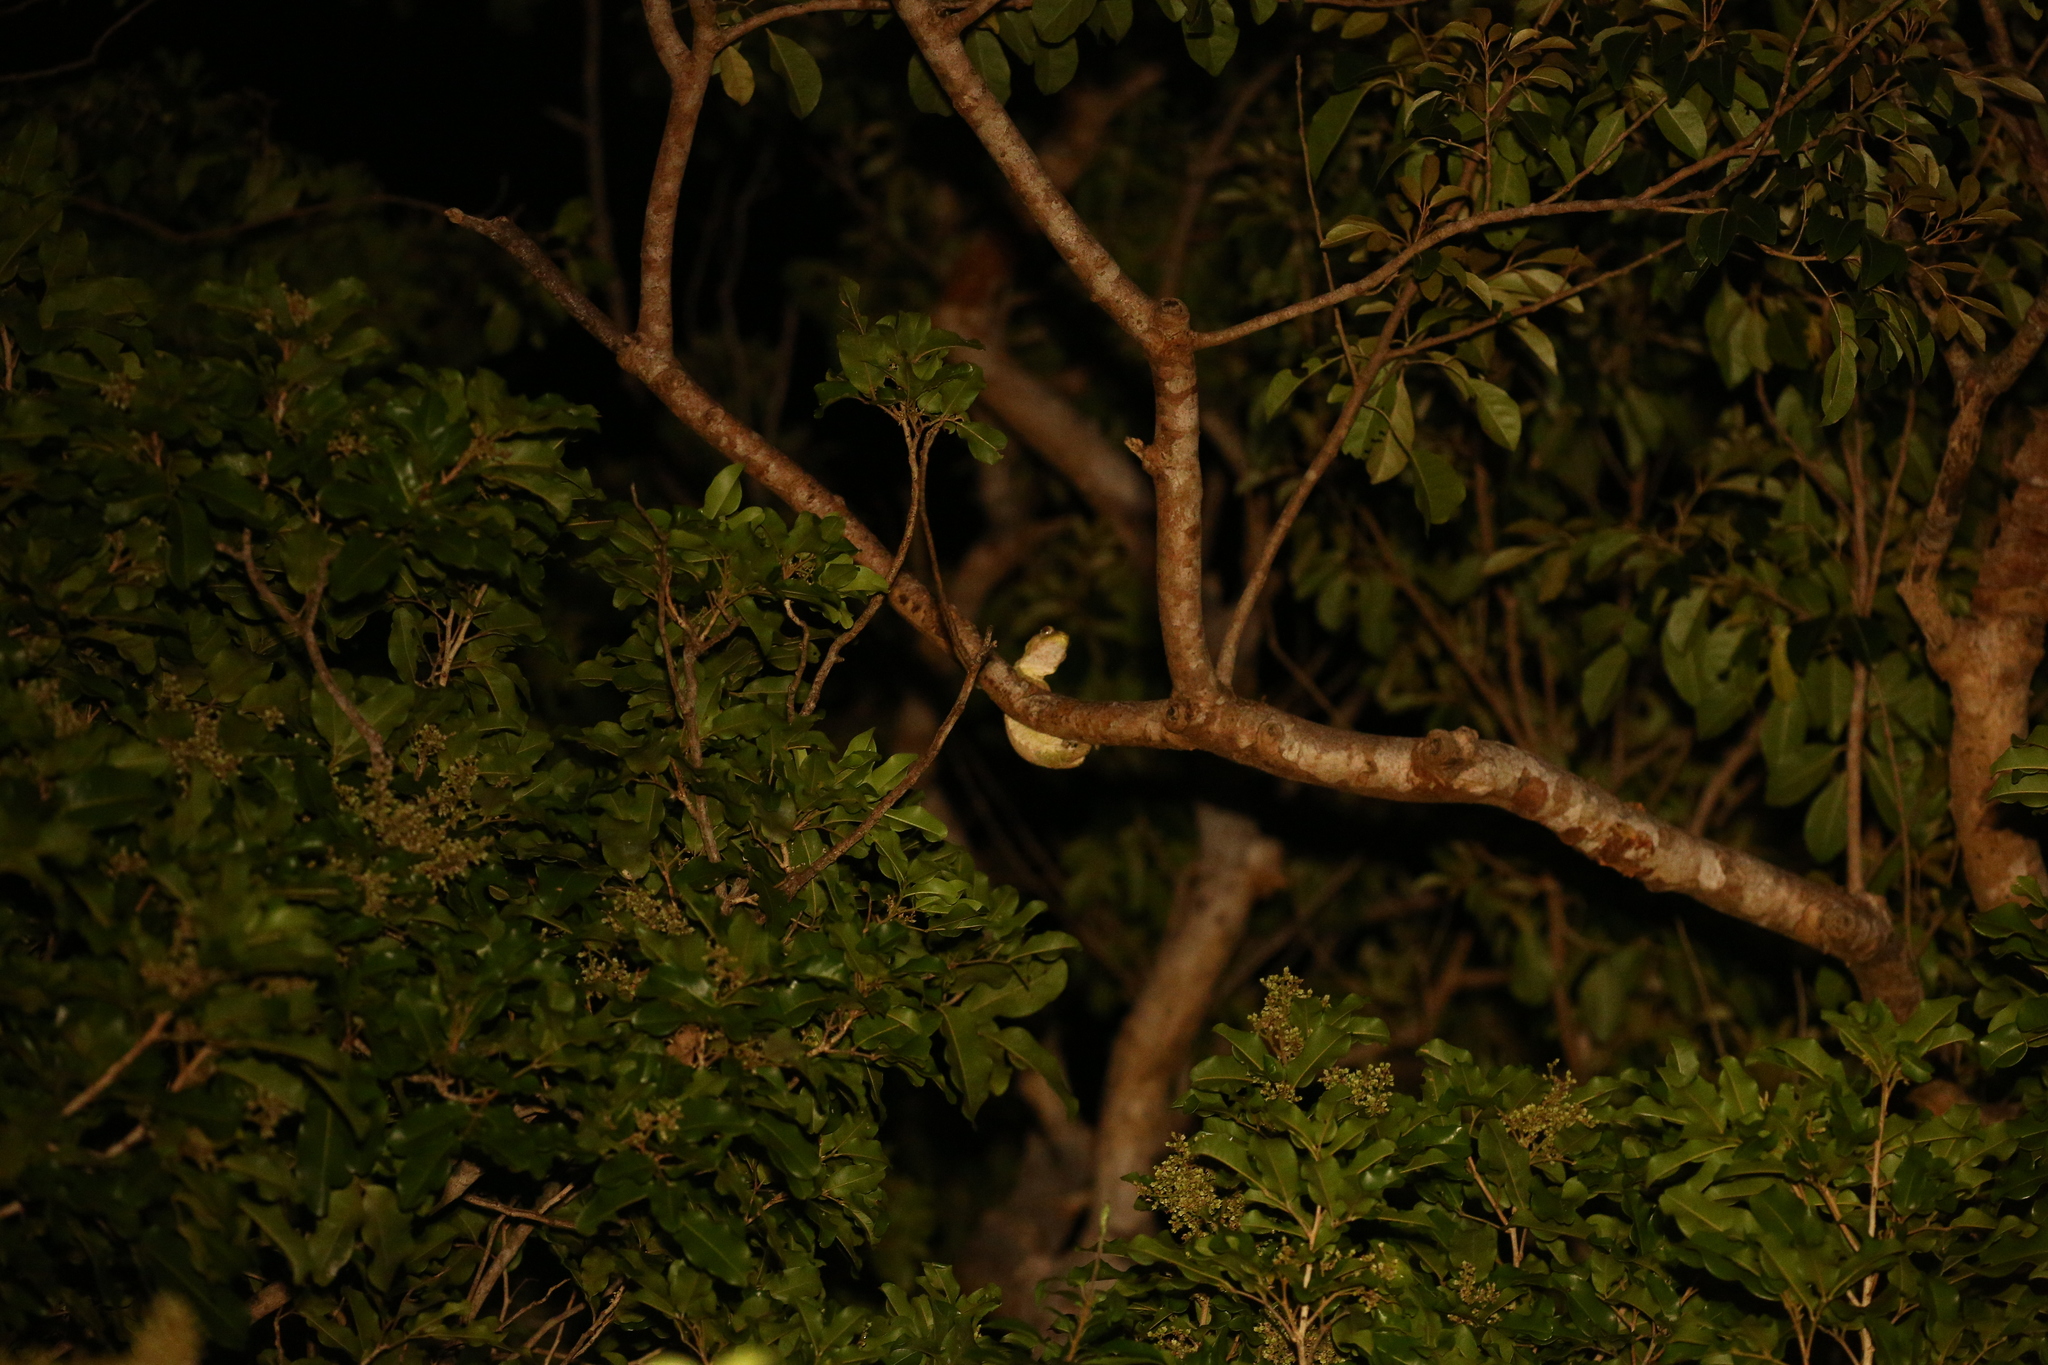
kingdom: Animalia
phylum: Chordata
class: Squamata
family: Diplodactylidae
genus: Mniarogekko
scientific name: Mniarogekko chahoua
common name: Bavay's giant gecko
